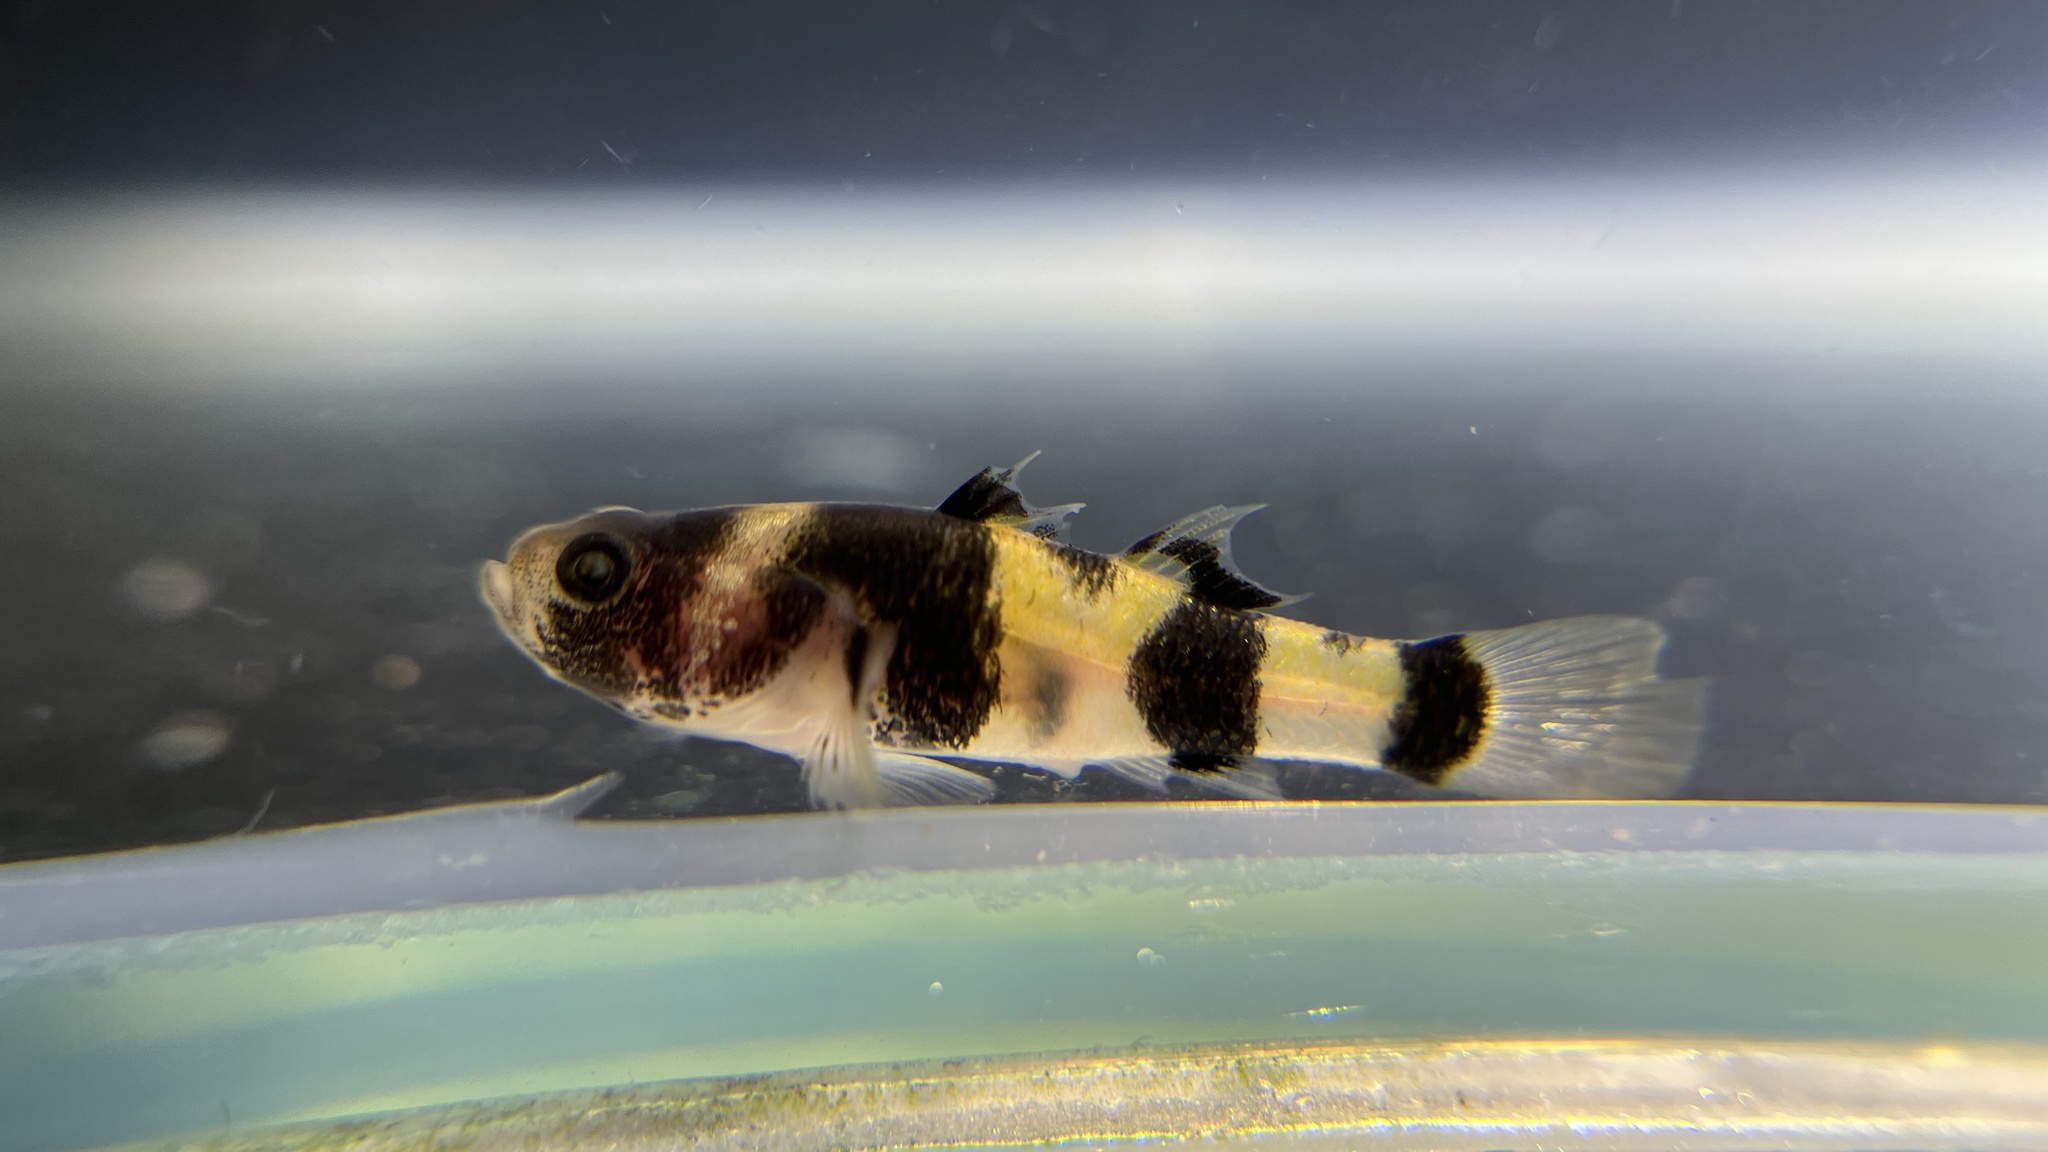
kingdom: Animalia
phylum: Chordata
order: Perciformes
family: Gobiidae
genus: Brachygobius
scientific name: Brachygobius doriae
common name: Bumblebee goby
